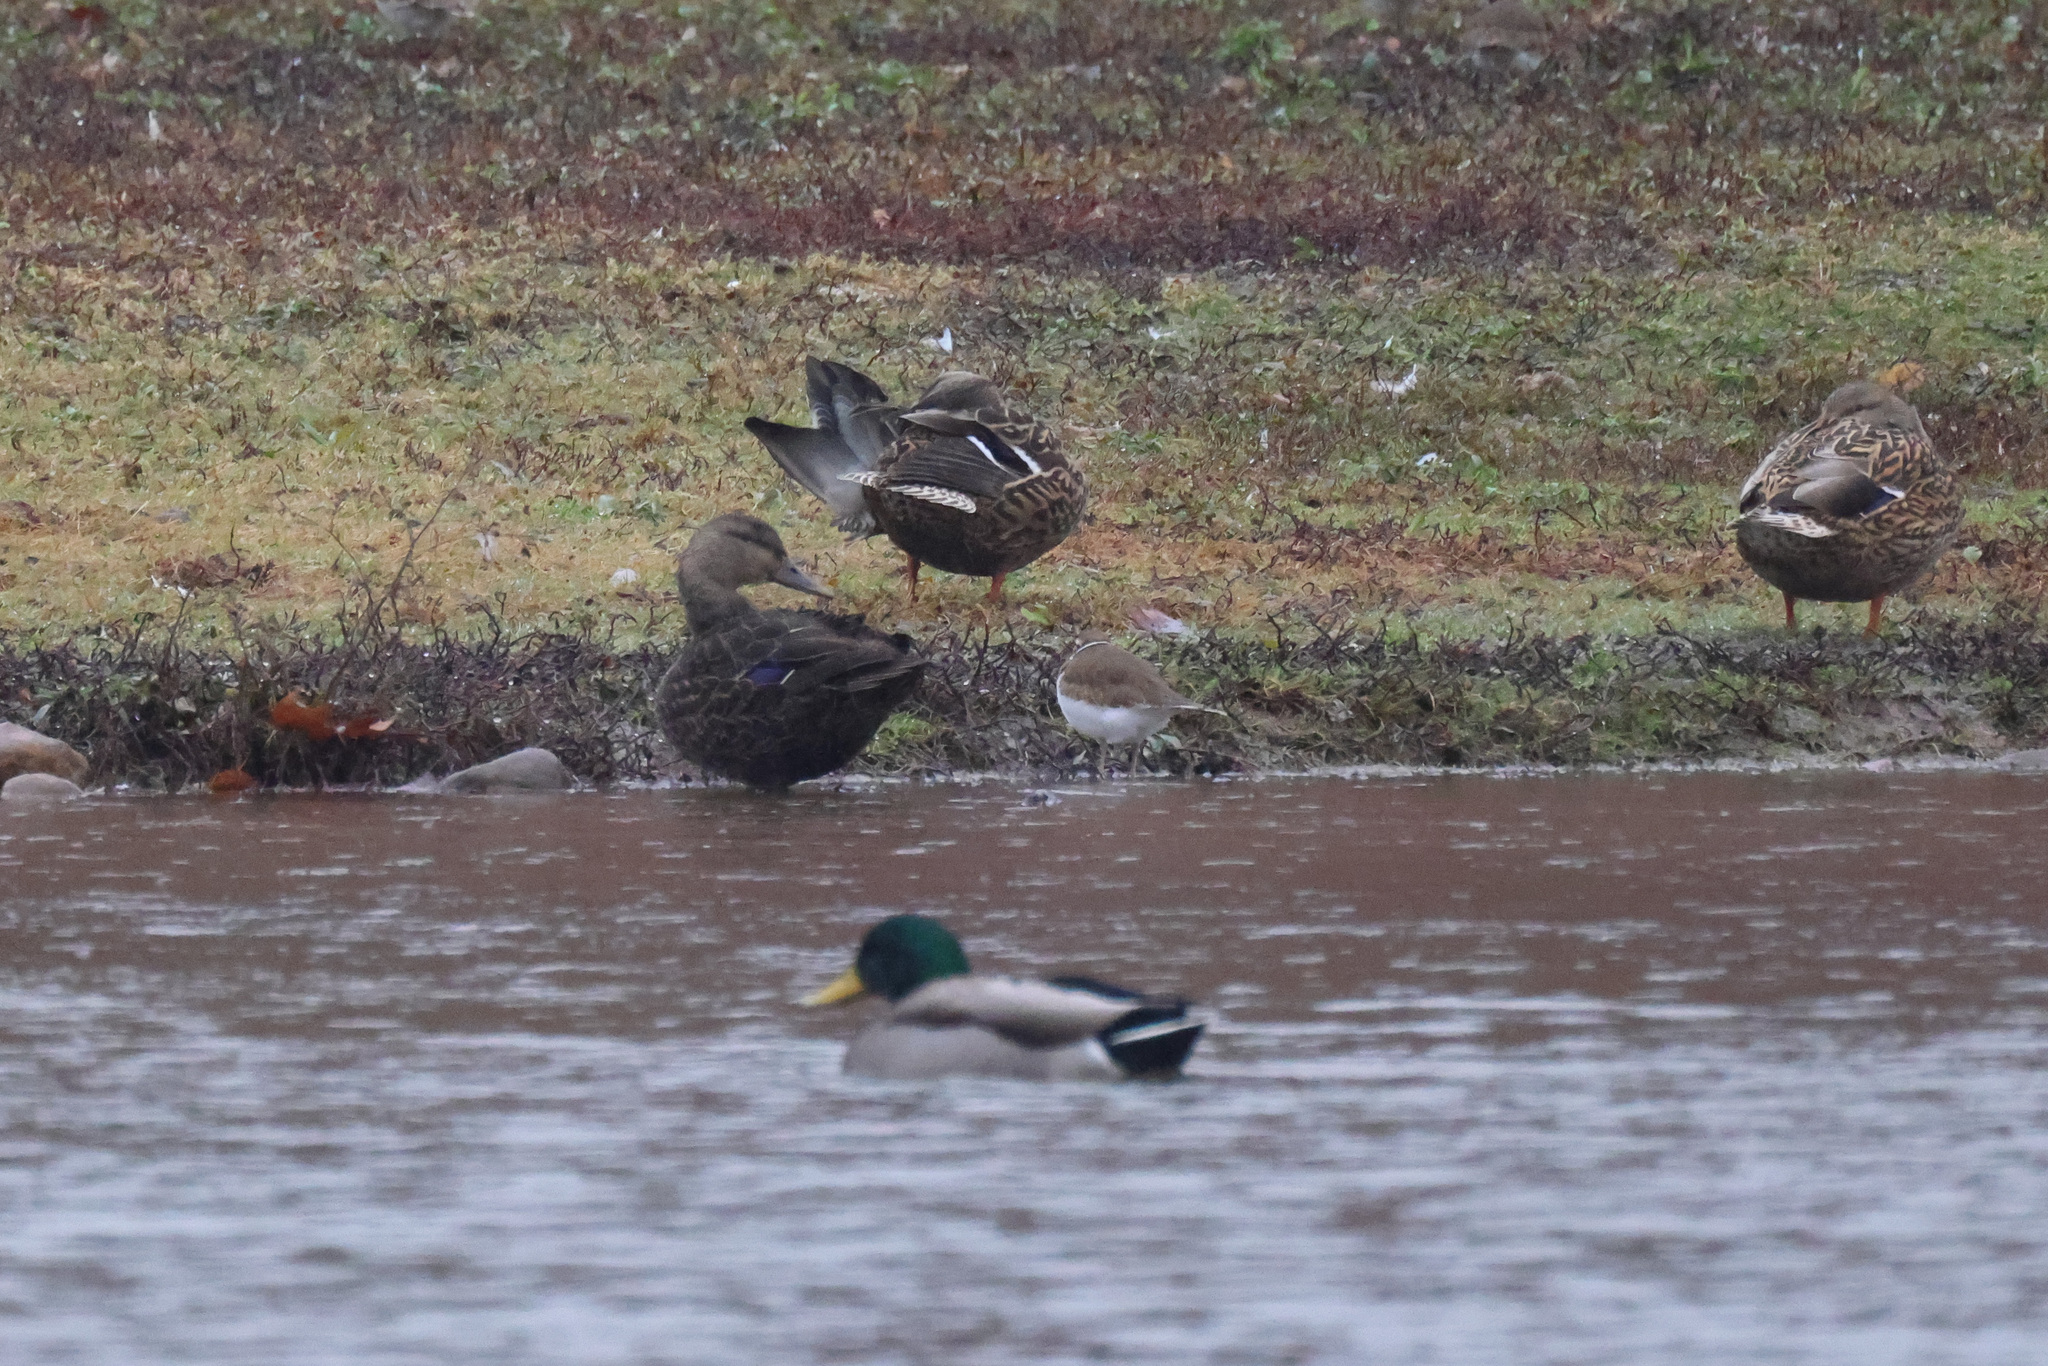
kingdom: Animalia
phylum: Chordata
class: Aves
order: Anseriformes
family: Anatidae
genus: Anas
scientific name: Anas rubripes
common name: American black duck
